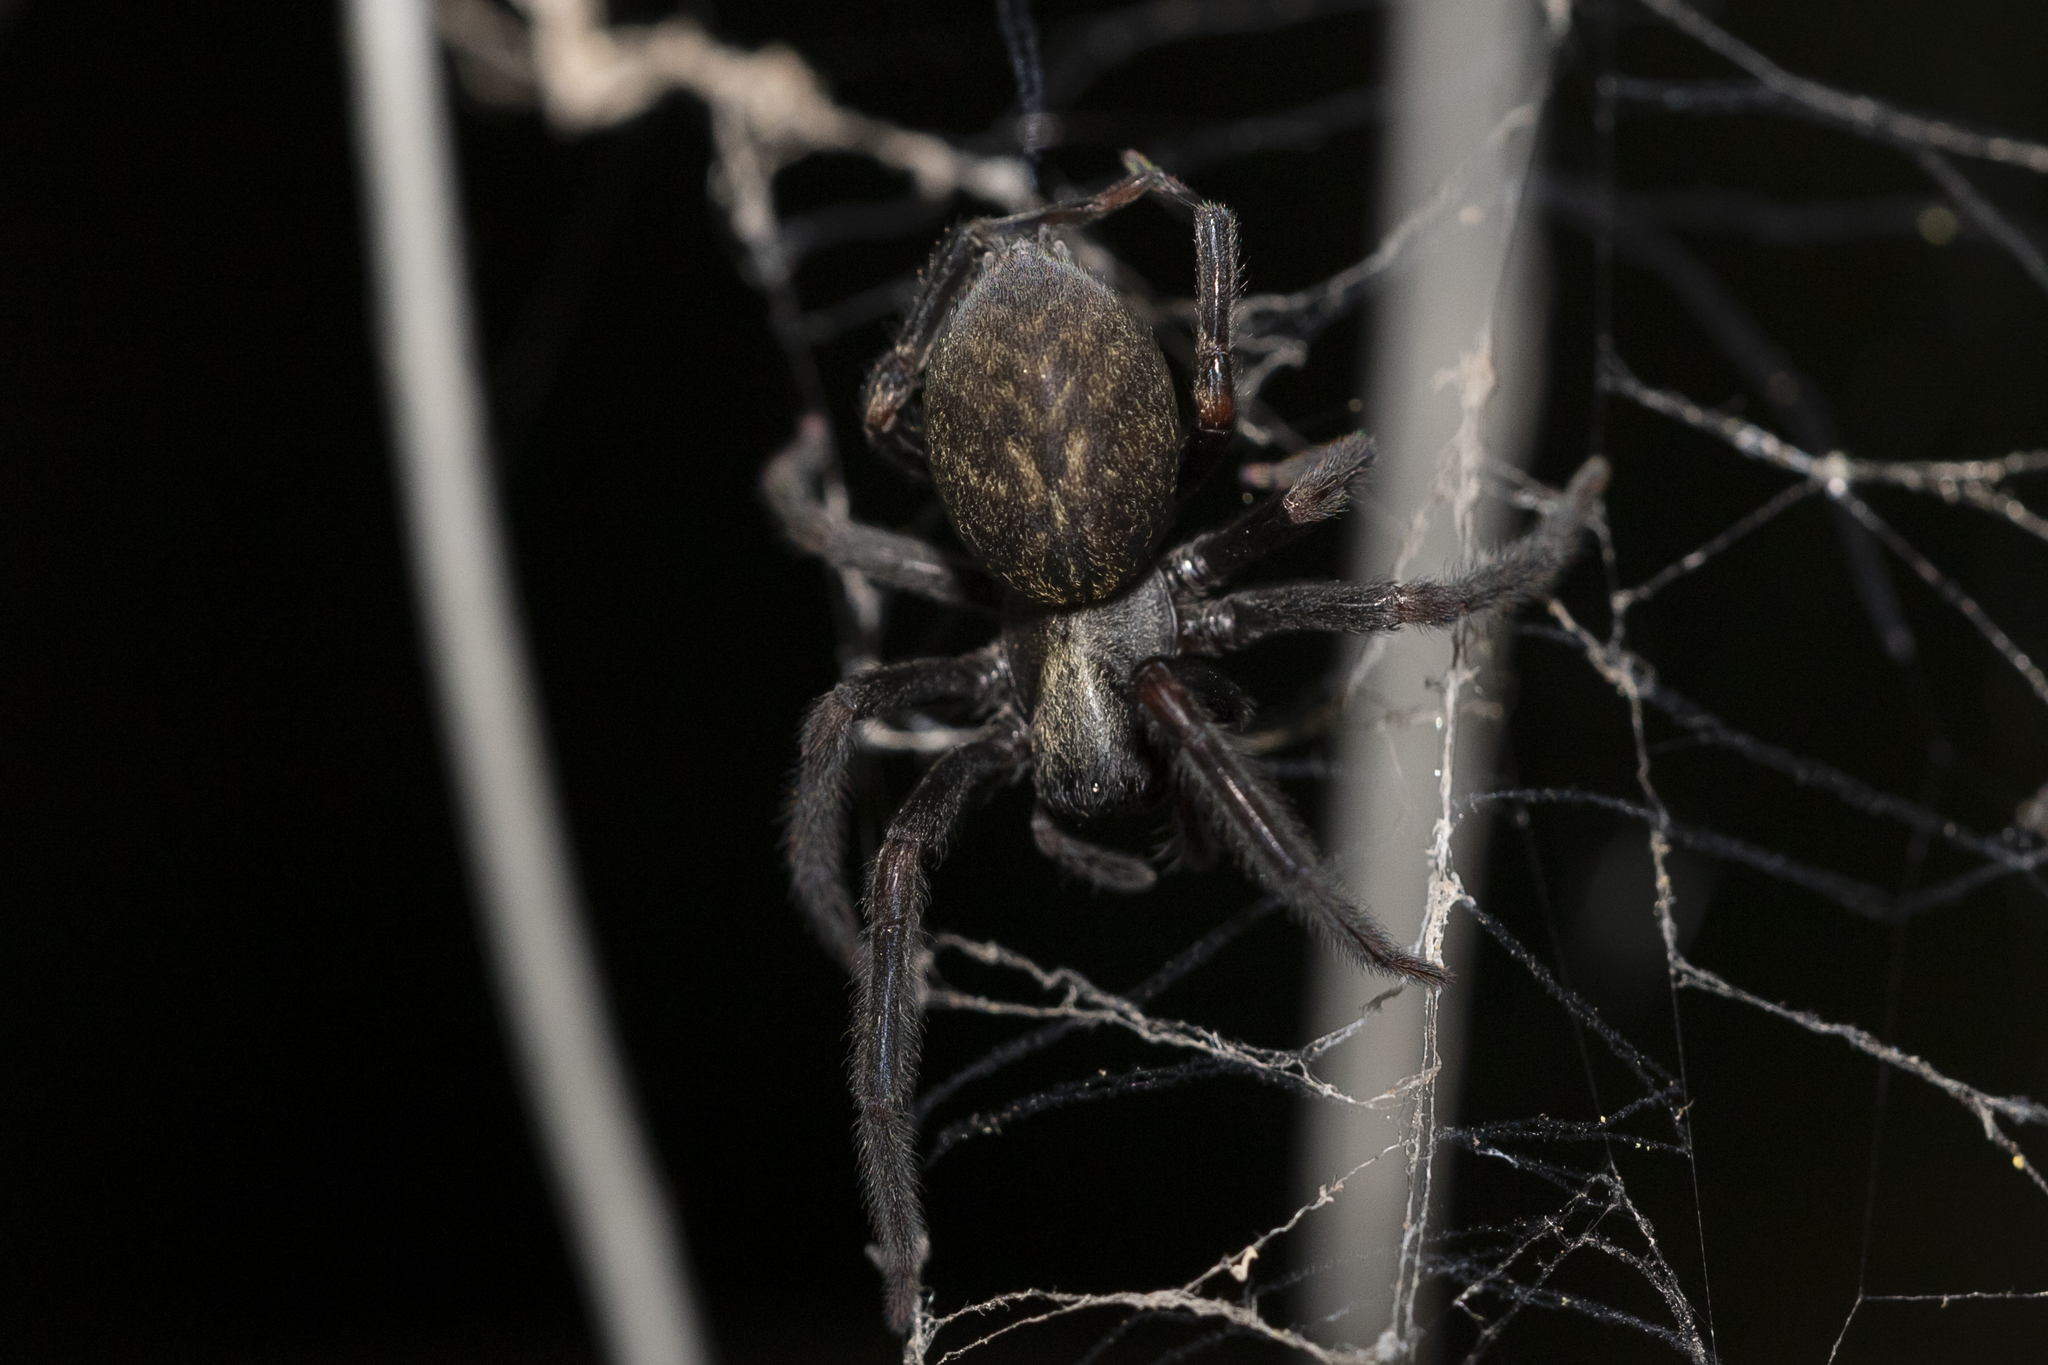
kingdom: Animalia
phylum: Arthropoda
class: Arachnida
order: Araneae
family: Desidae
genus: Badumna
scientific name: Badumna insignis
